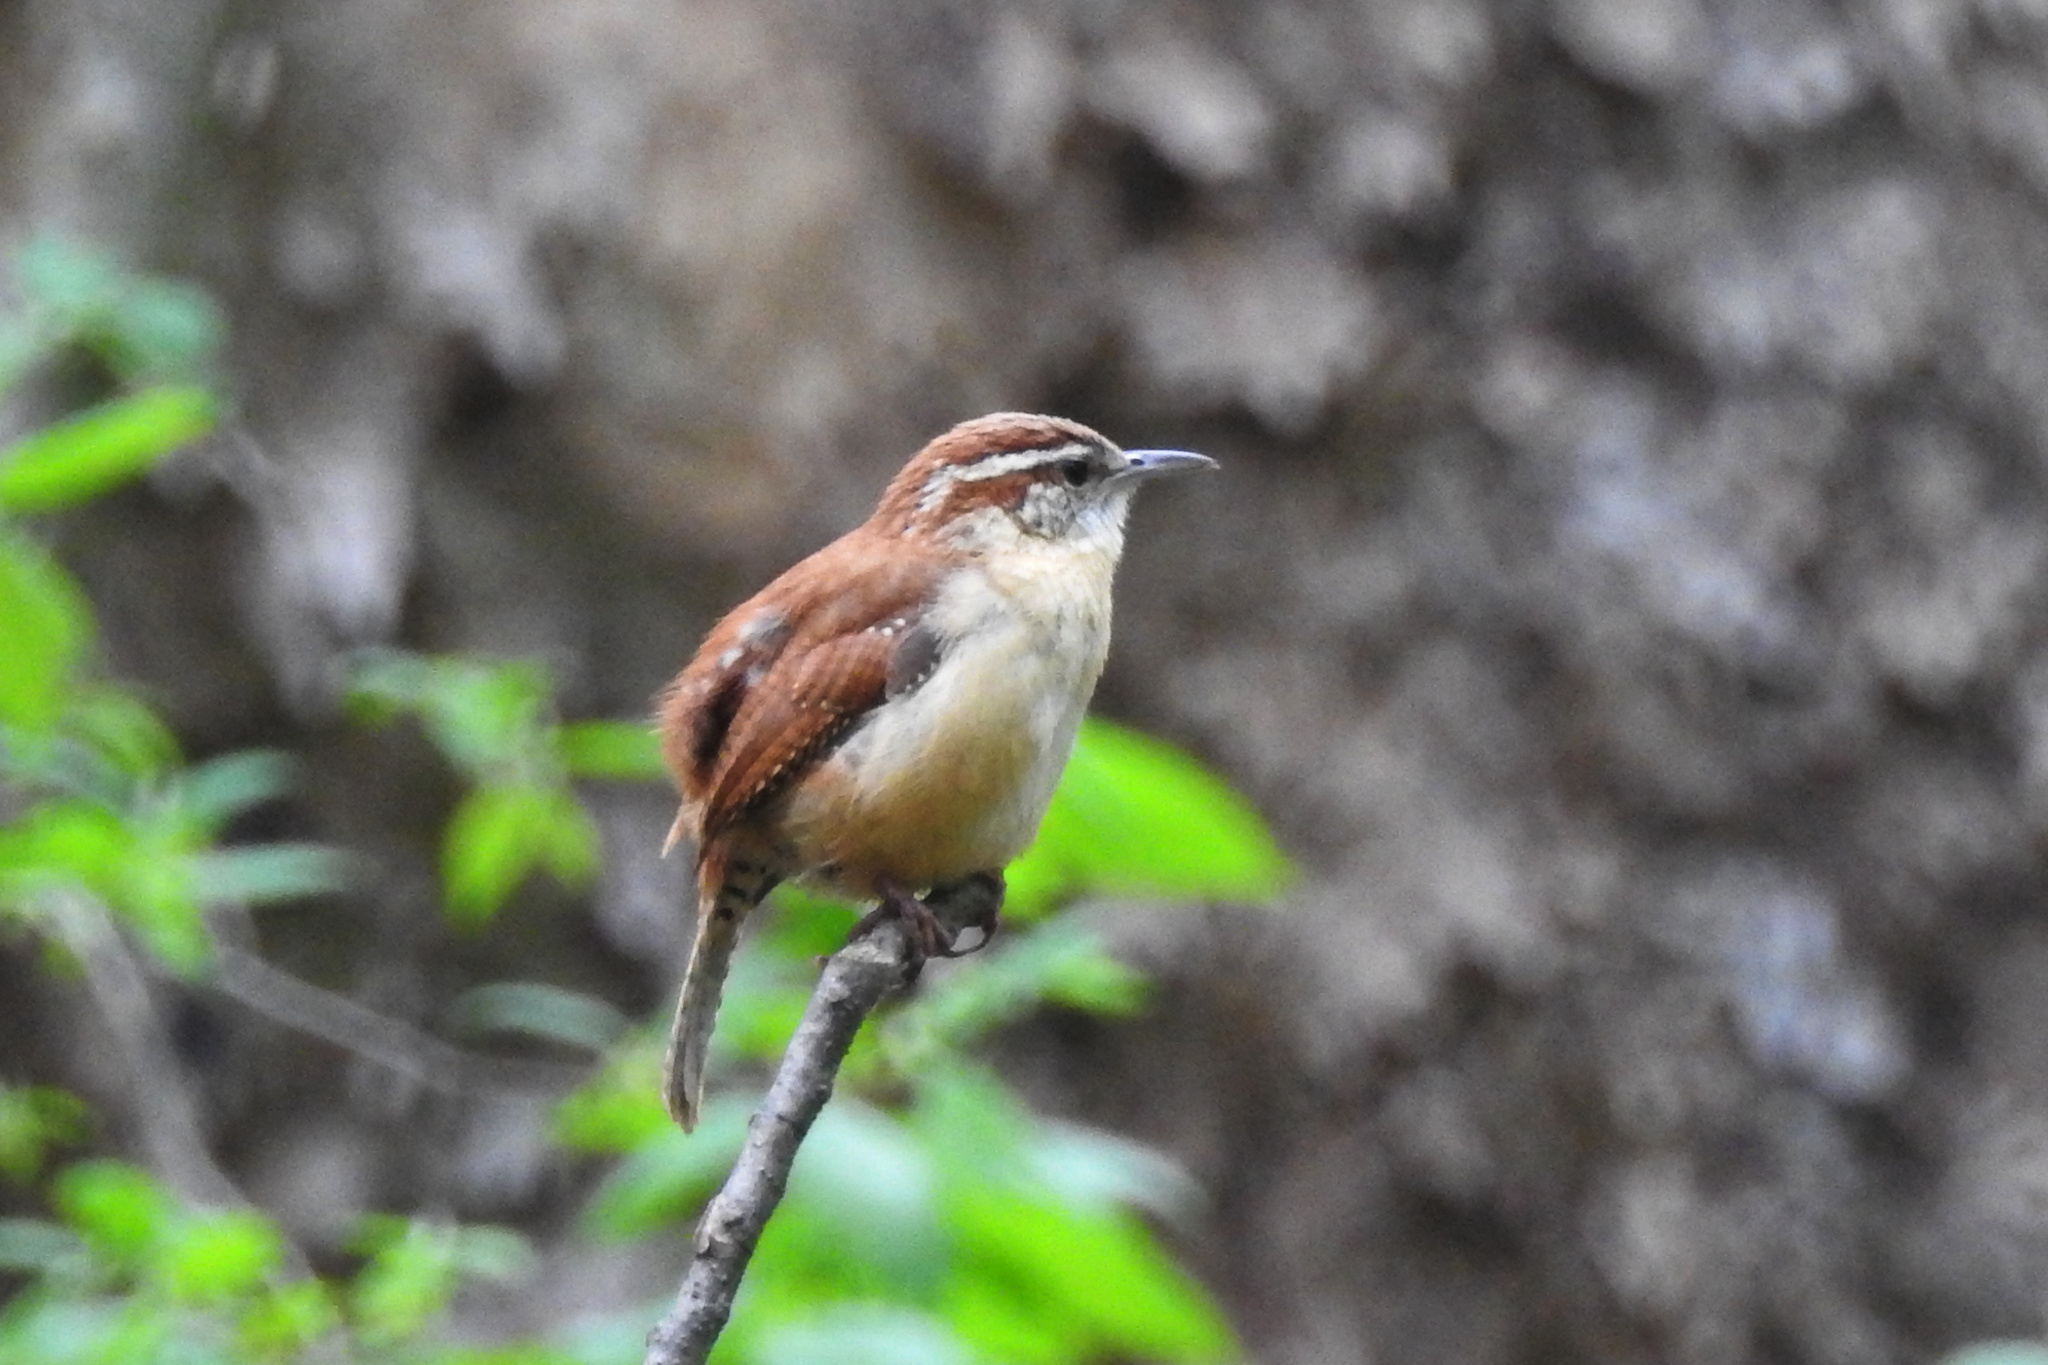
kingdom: Animalia
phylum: Chordata
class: Aves
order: Passeriformes
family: Troglodytidae
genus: Thryothorus
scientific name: Thryothorus ludovicianus
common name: Carolina wren
